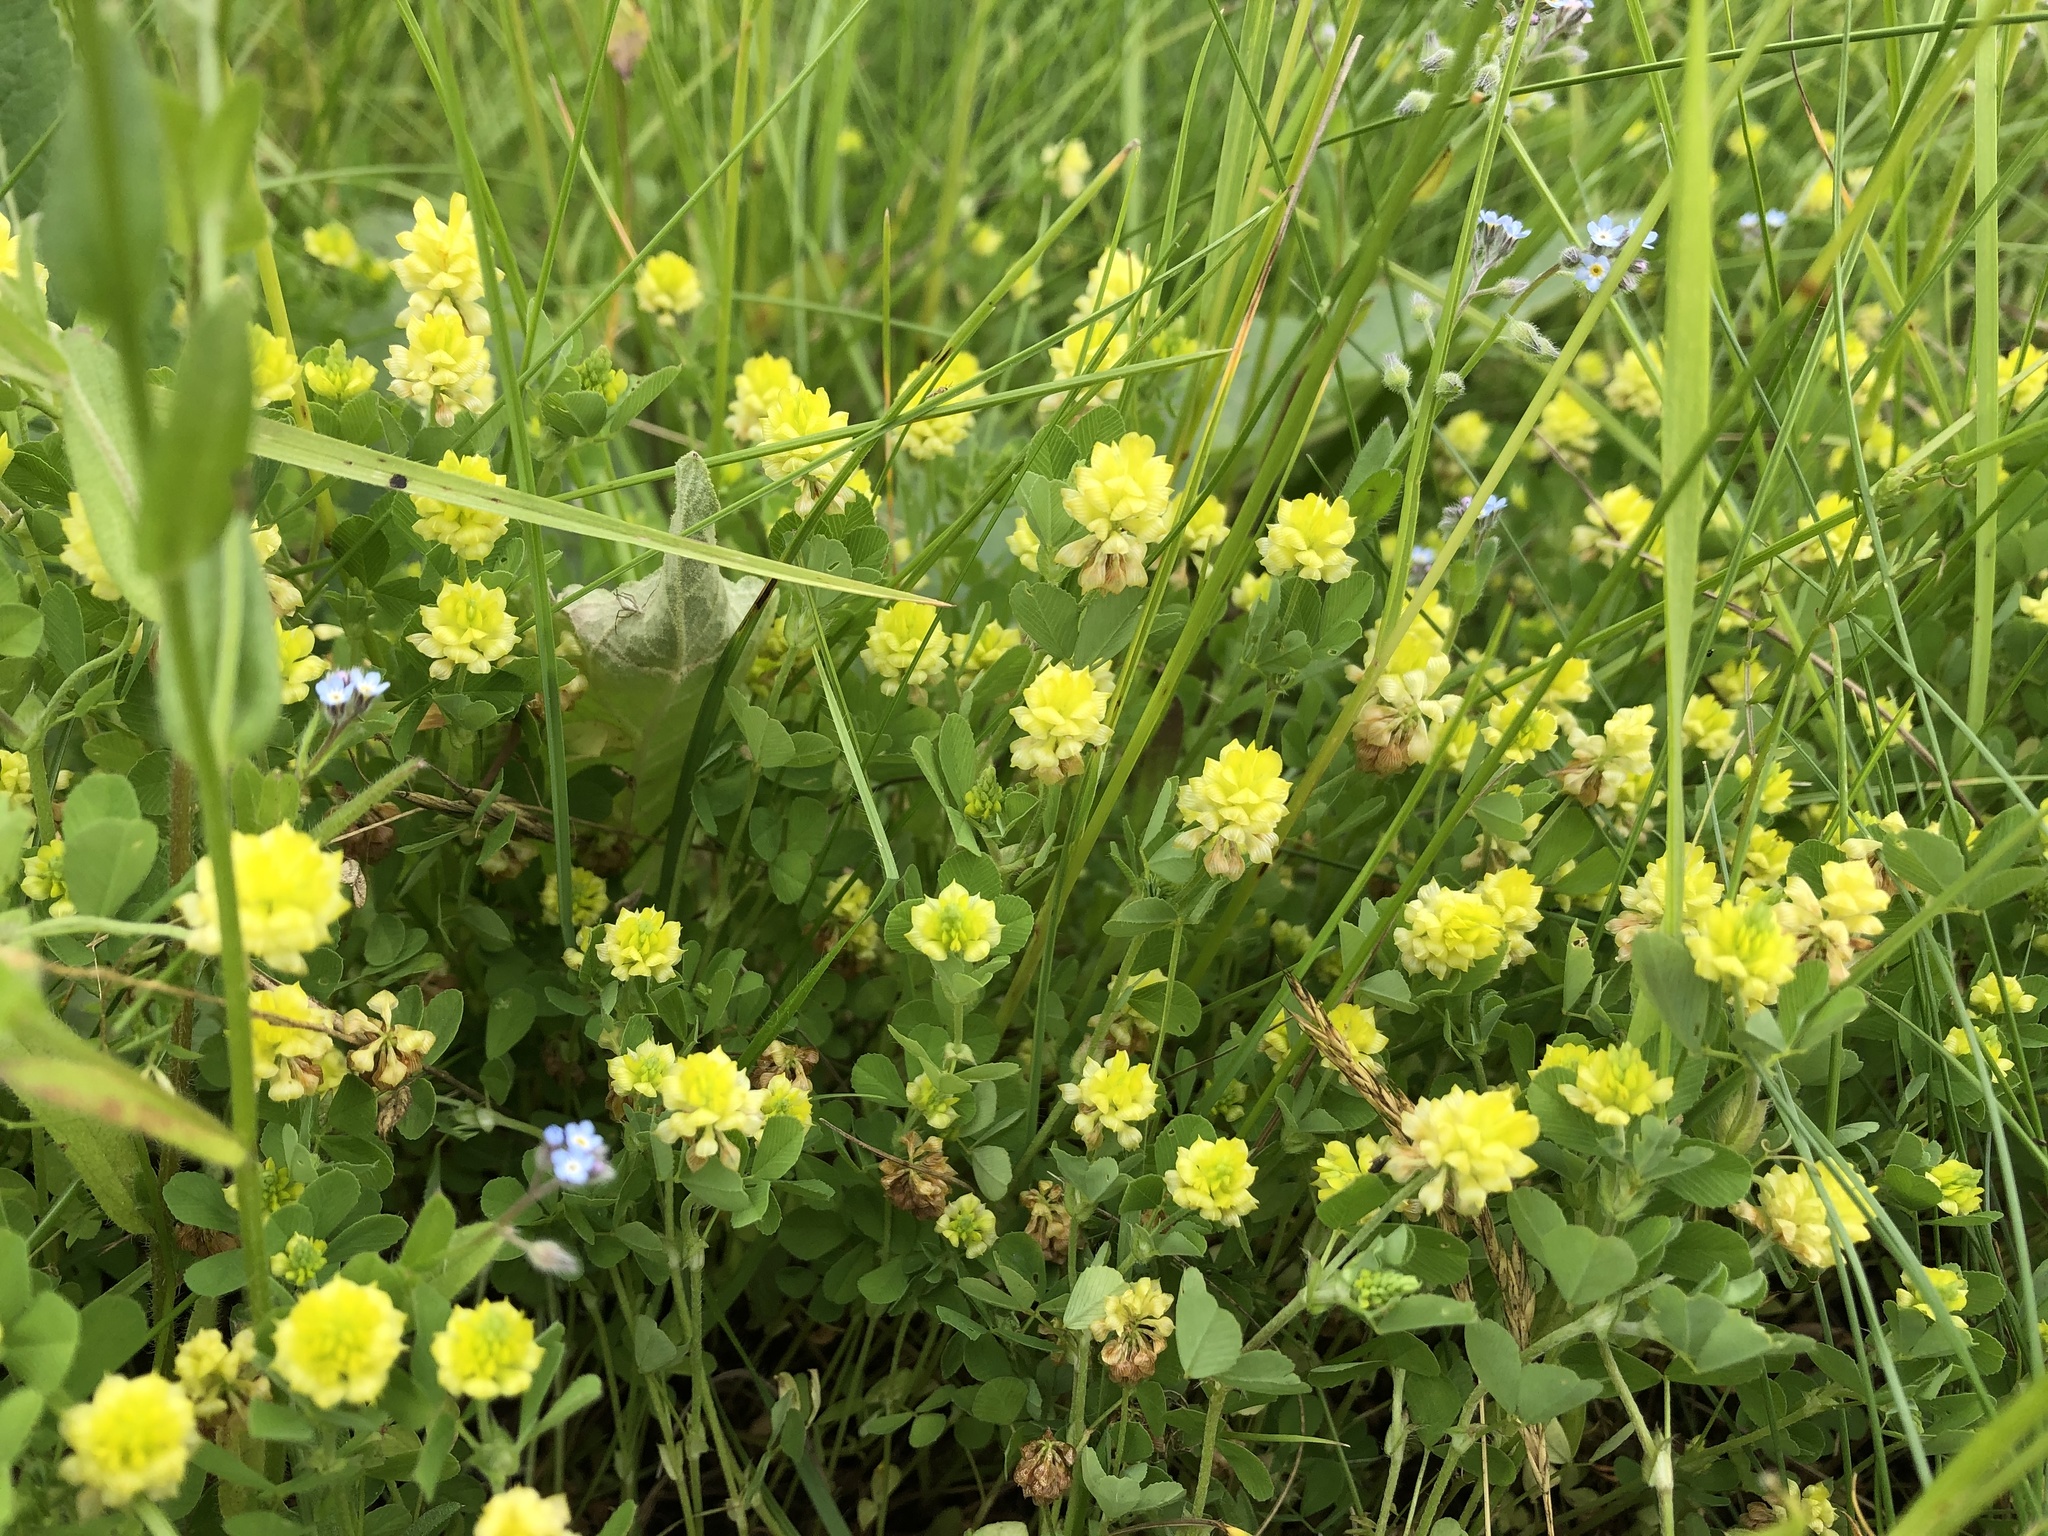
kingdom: Plantae
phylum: Tracheophyta
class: Magnoliopsida
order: Fabales
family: Fabaceae
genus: Trifolium
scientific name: Trifolium campestre
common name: Field clover
